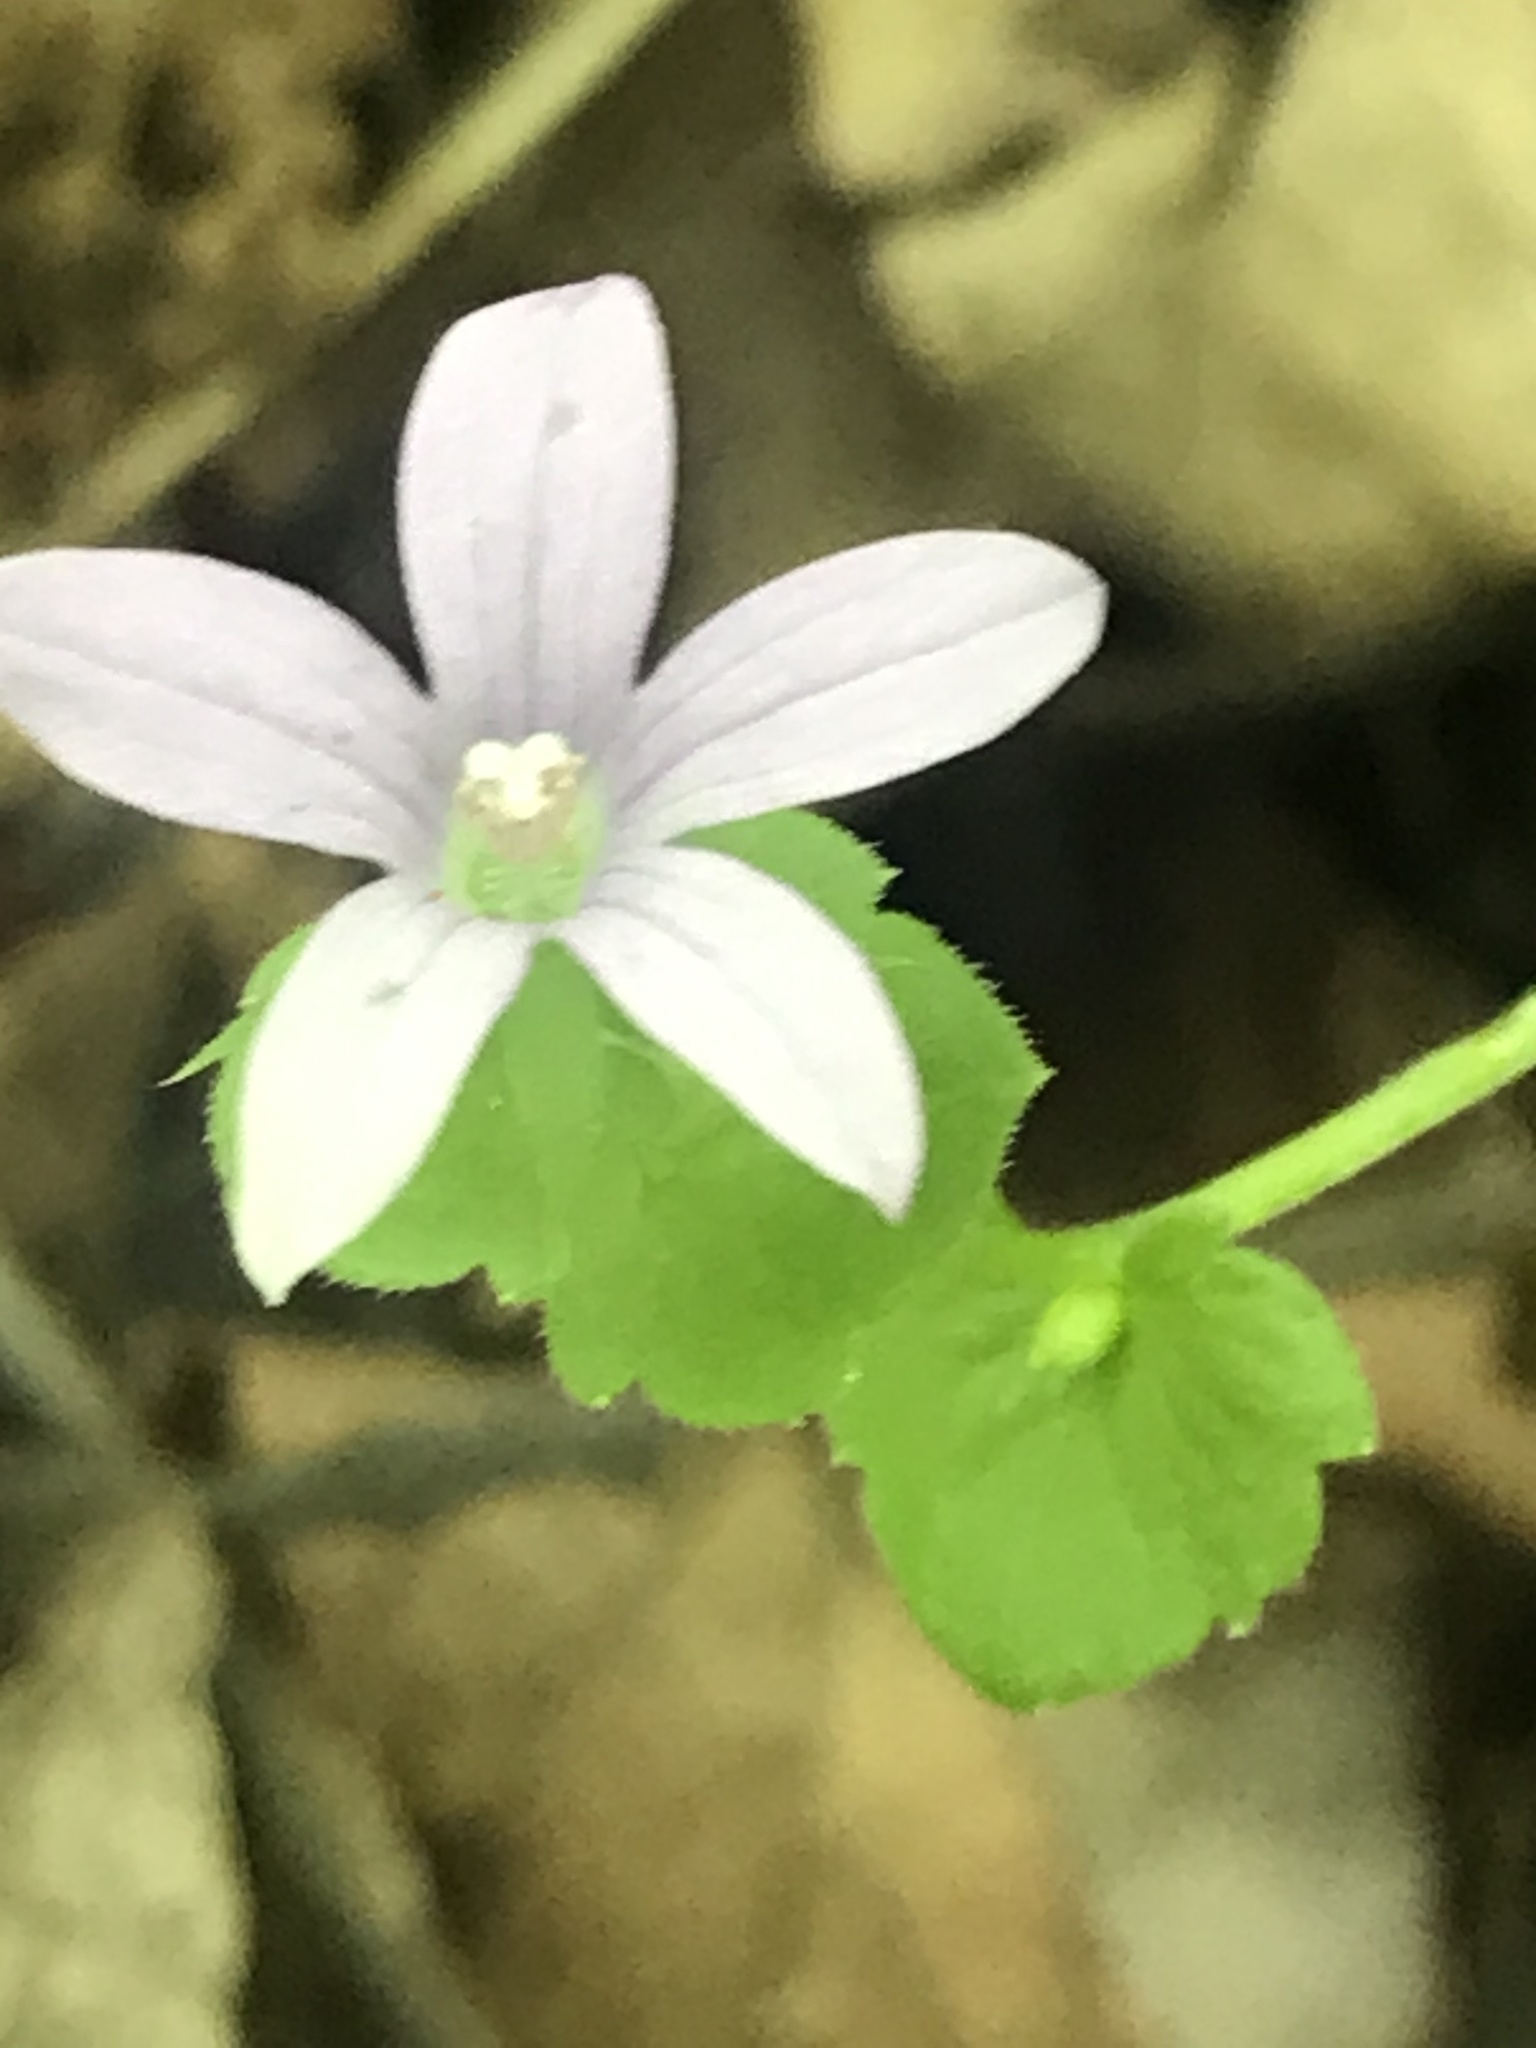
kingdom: Plantae
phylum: Tracheophyta
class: Magnoliopsida
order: Asterales
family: Campanulaceae
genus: Triodanis
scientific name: Triodanis perfoliata
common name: Clasping venus' looking-glass
